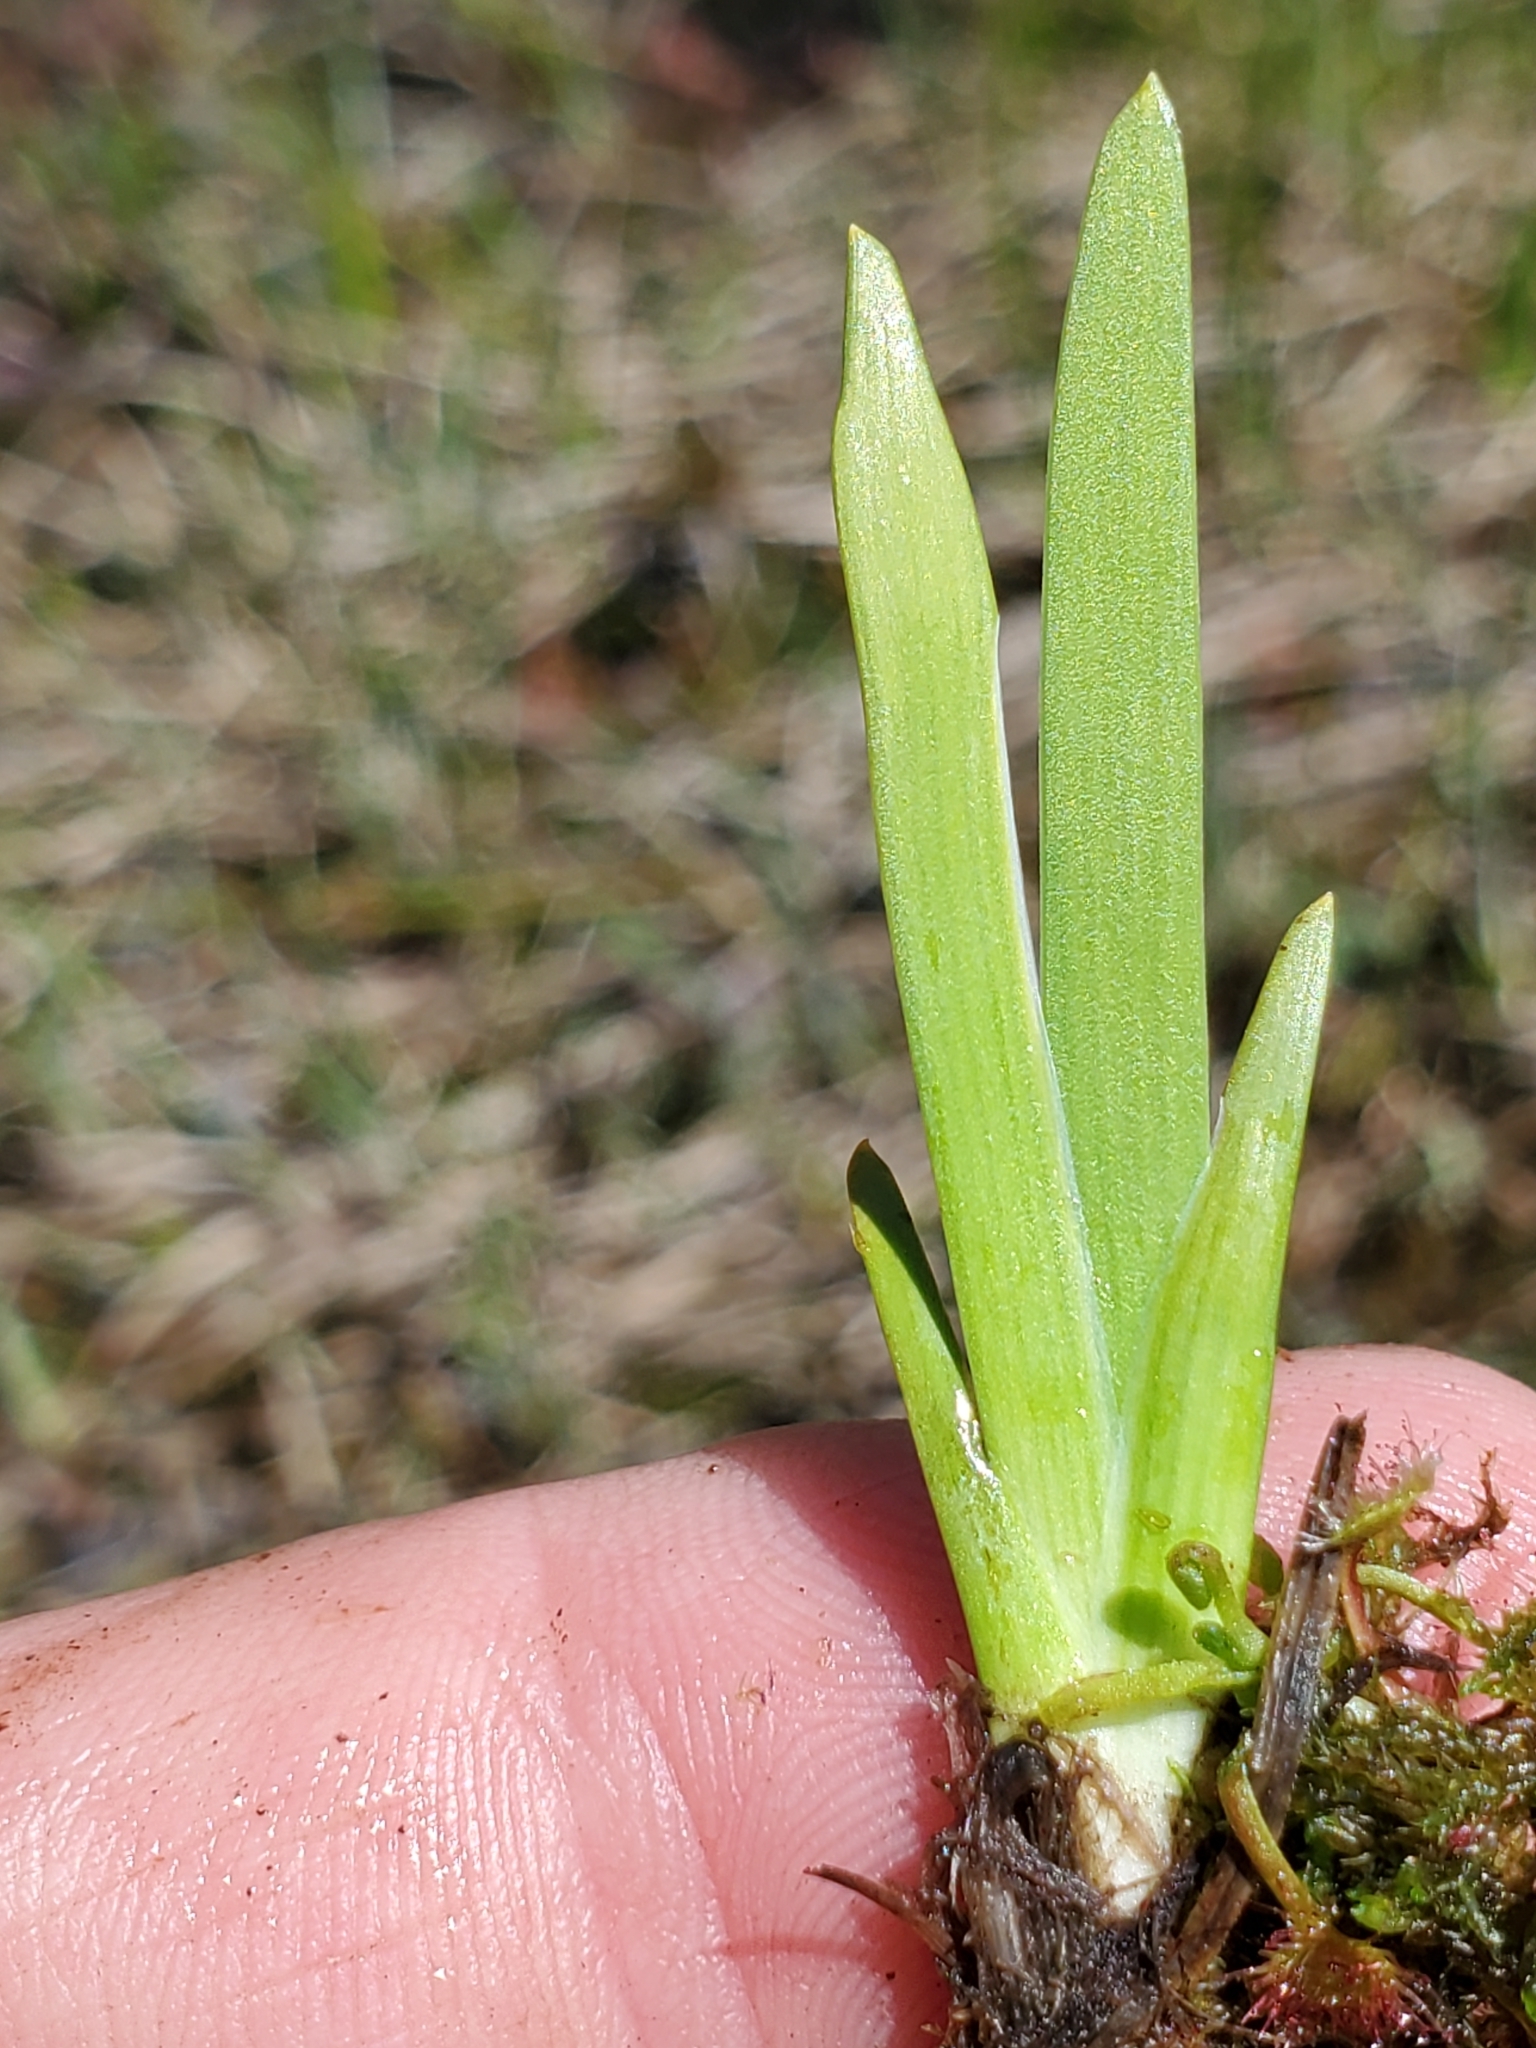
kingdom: Plantae
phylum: Tracheophyta
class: Liliopsida
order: Alismatales
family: Tofieldiaceae
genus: Triantha
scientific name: Triantha occidentalis
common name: Western false asphodel
